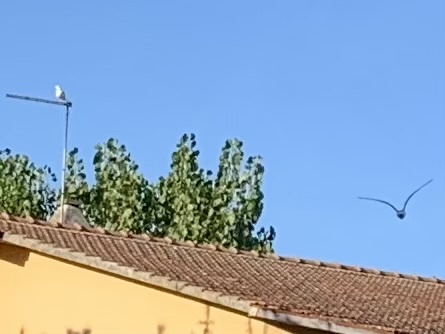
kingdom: Animalia
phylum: Chordata
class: Aves
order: Charadriiformes
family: Laridae
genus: Chroicocephalus
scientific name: Chroicocephalus ridibundus
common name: Black-headed gull
